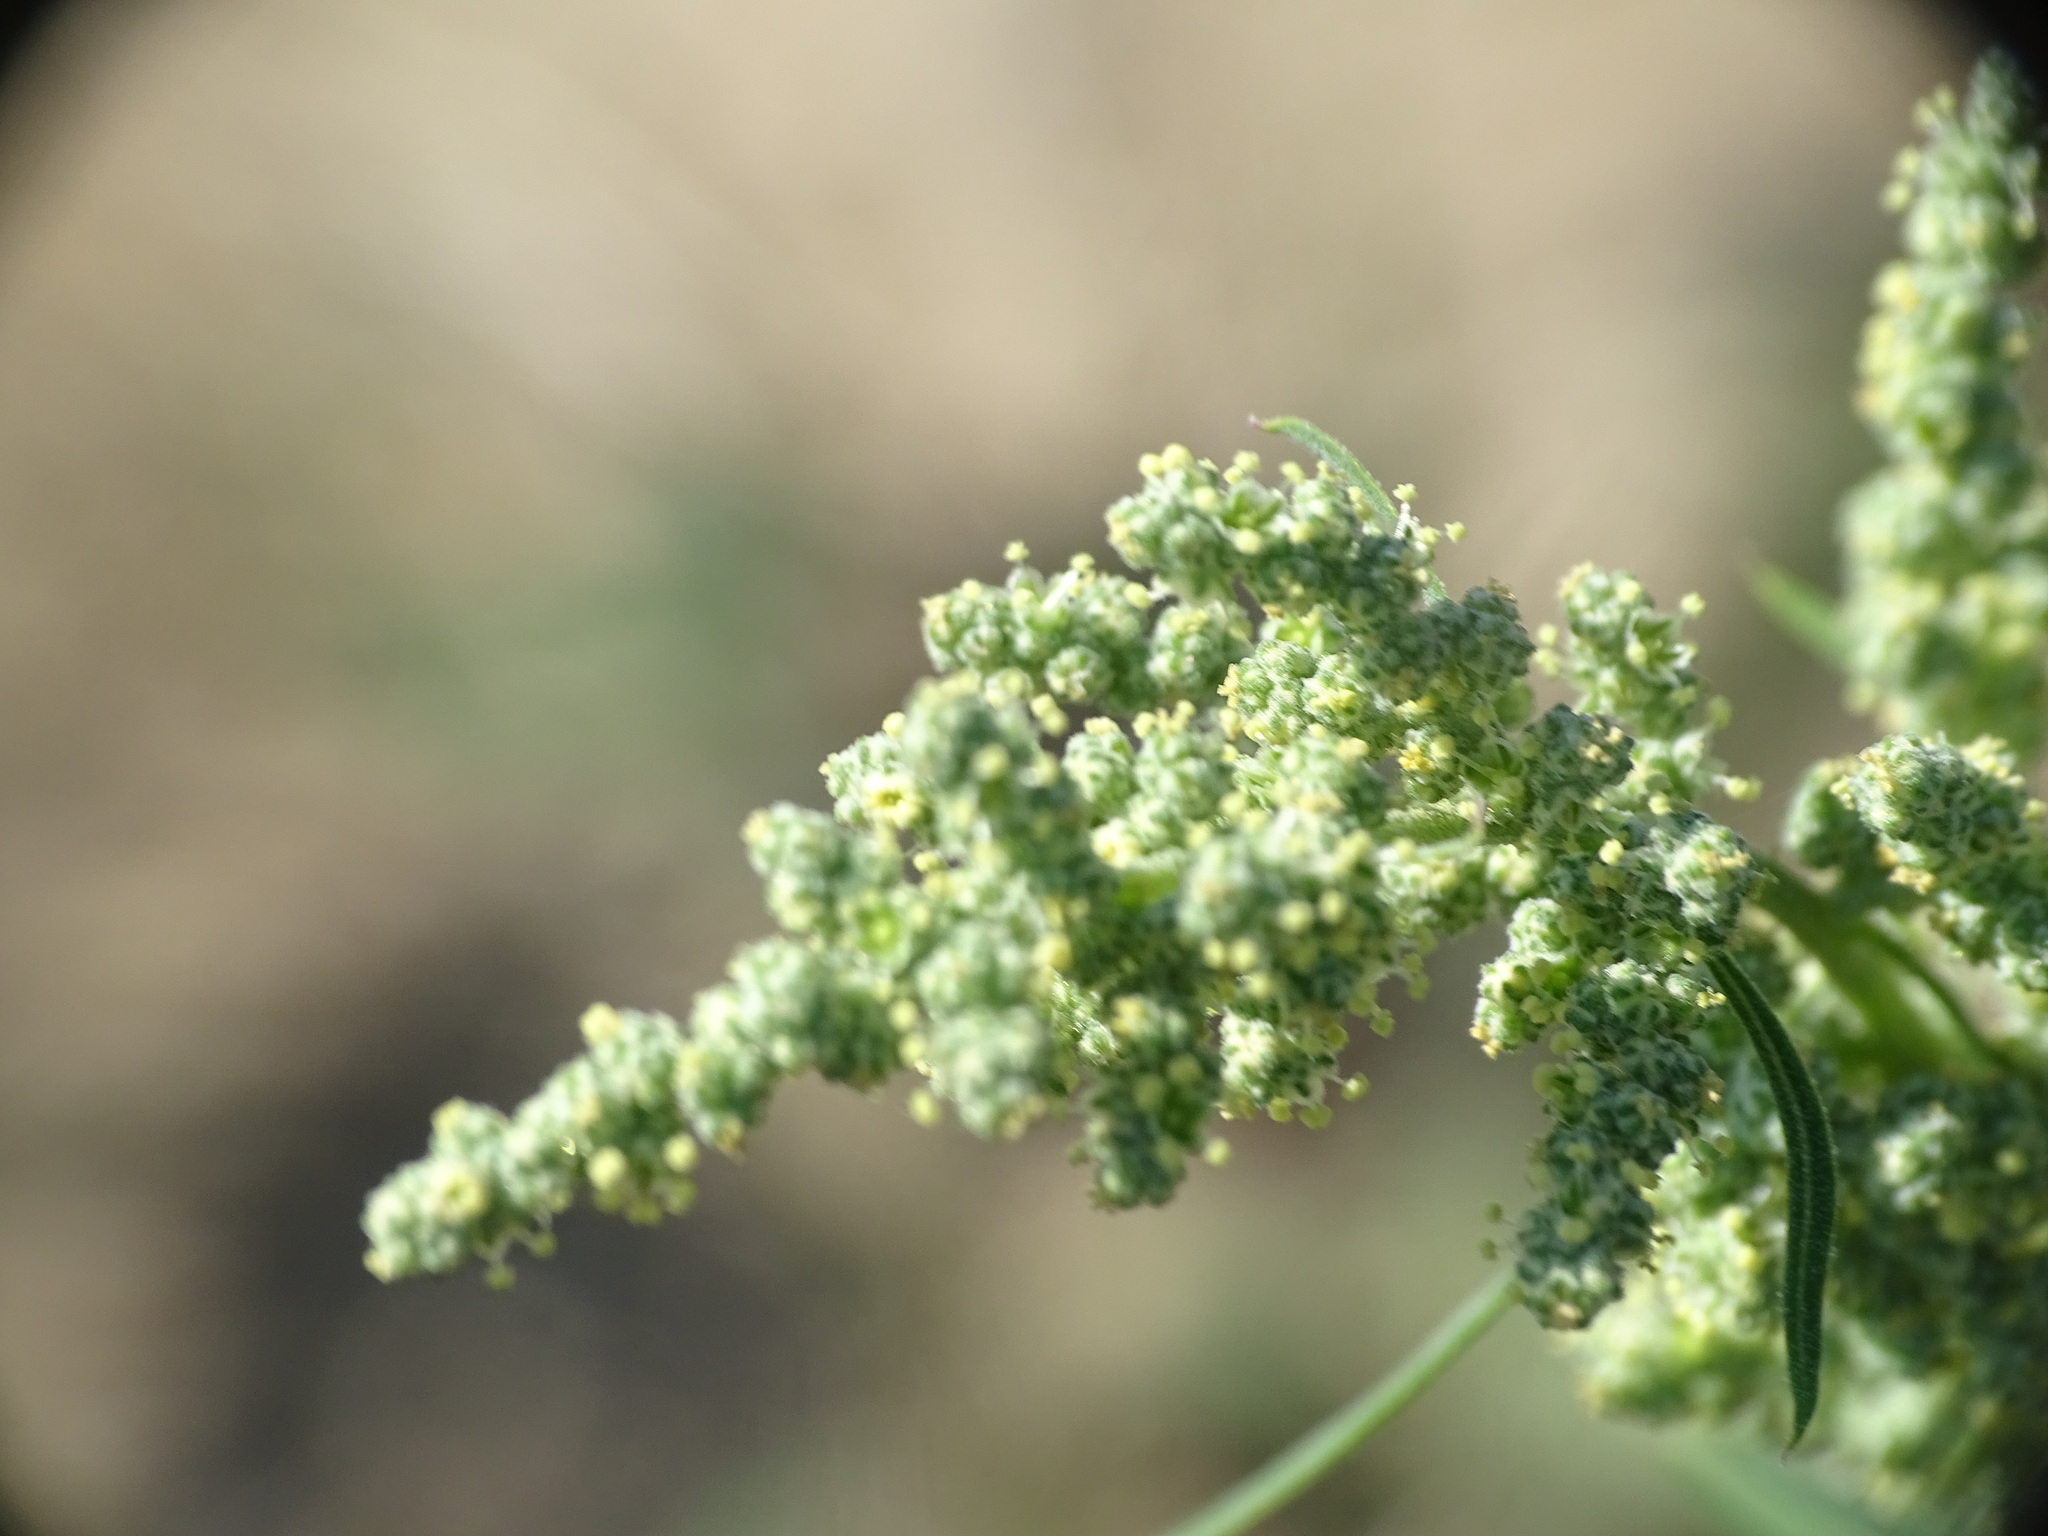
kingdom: Plantae
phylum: Tracheophyta
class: Magnoliopsida
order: Caryophyllales
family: Amaranthaceae
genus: Chenopodium
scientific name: Chenopodium album
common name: Fat-hen
